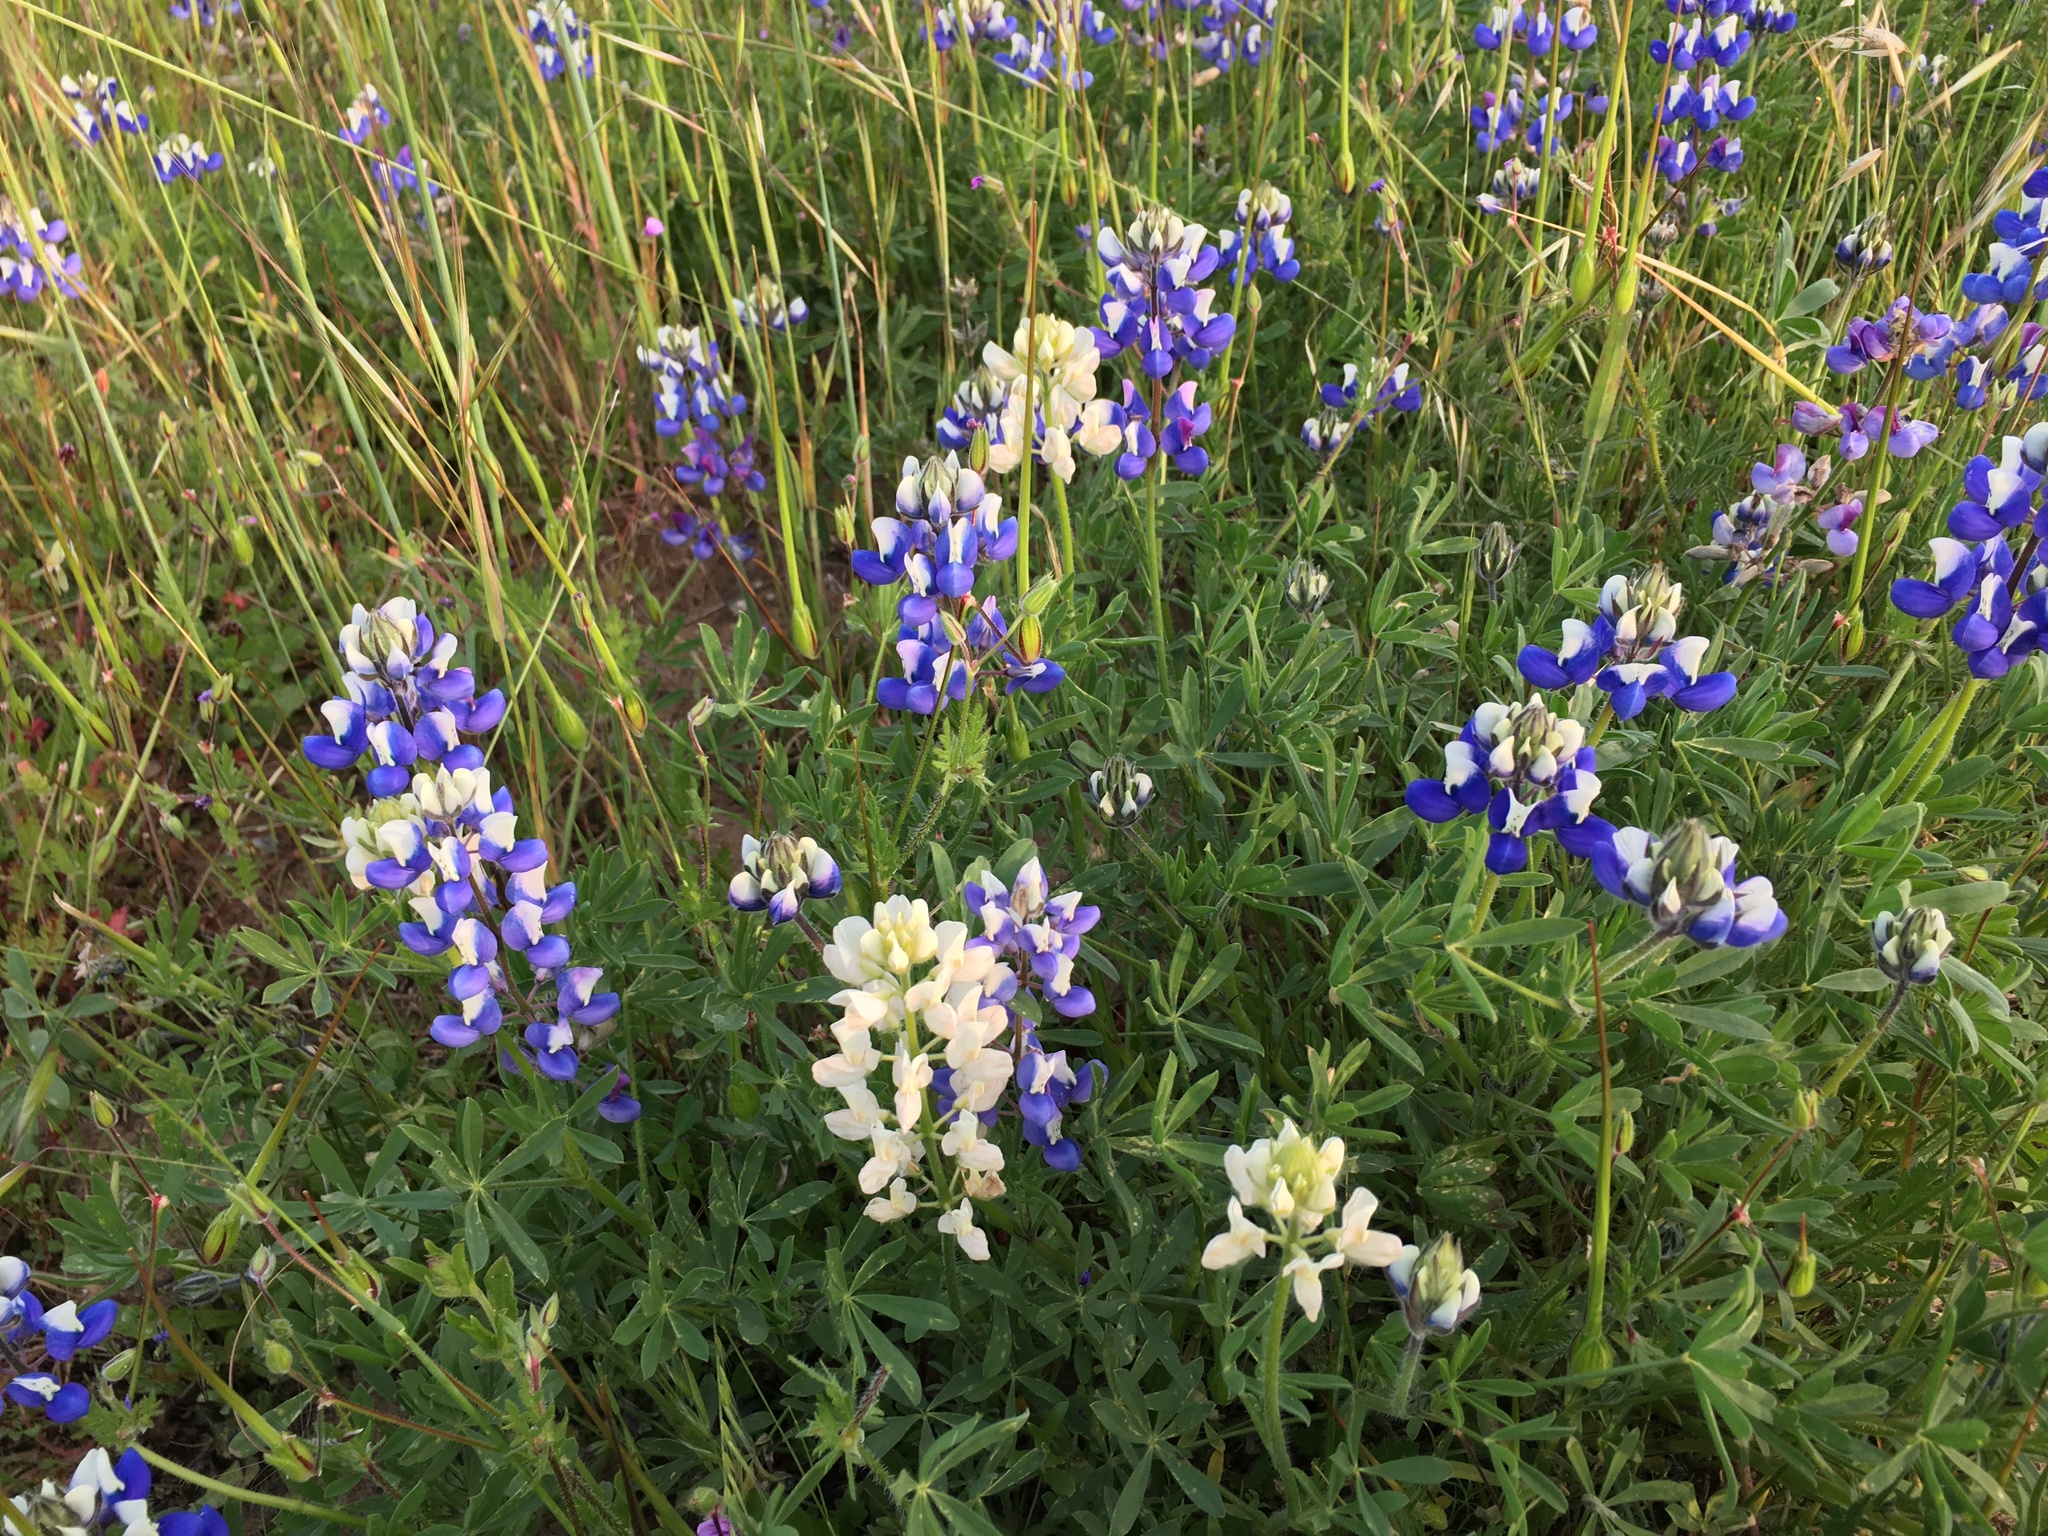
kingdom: Plantae
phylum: Tracheophyta
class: Magnoliopsida
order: Fabales
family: Fabaceae
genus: Lupinus
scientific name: Lupinus nanus
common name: Orean blue lupin
